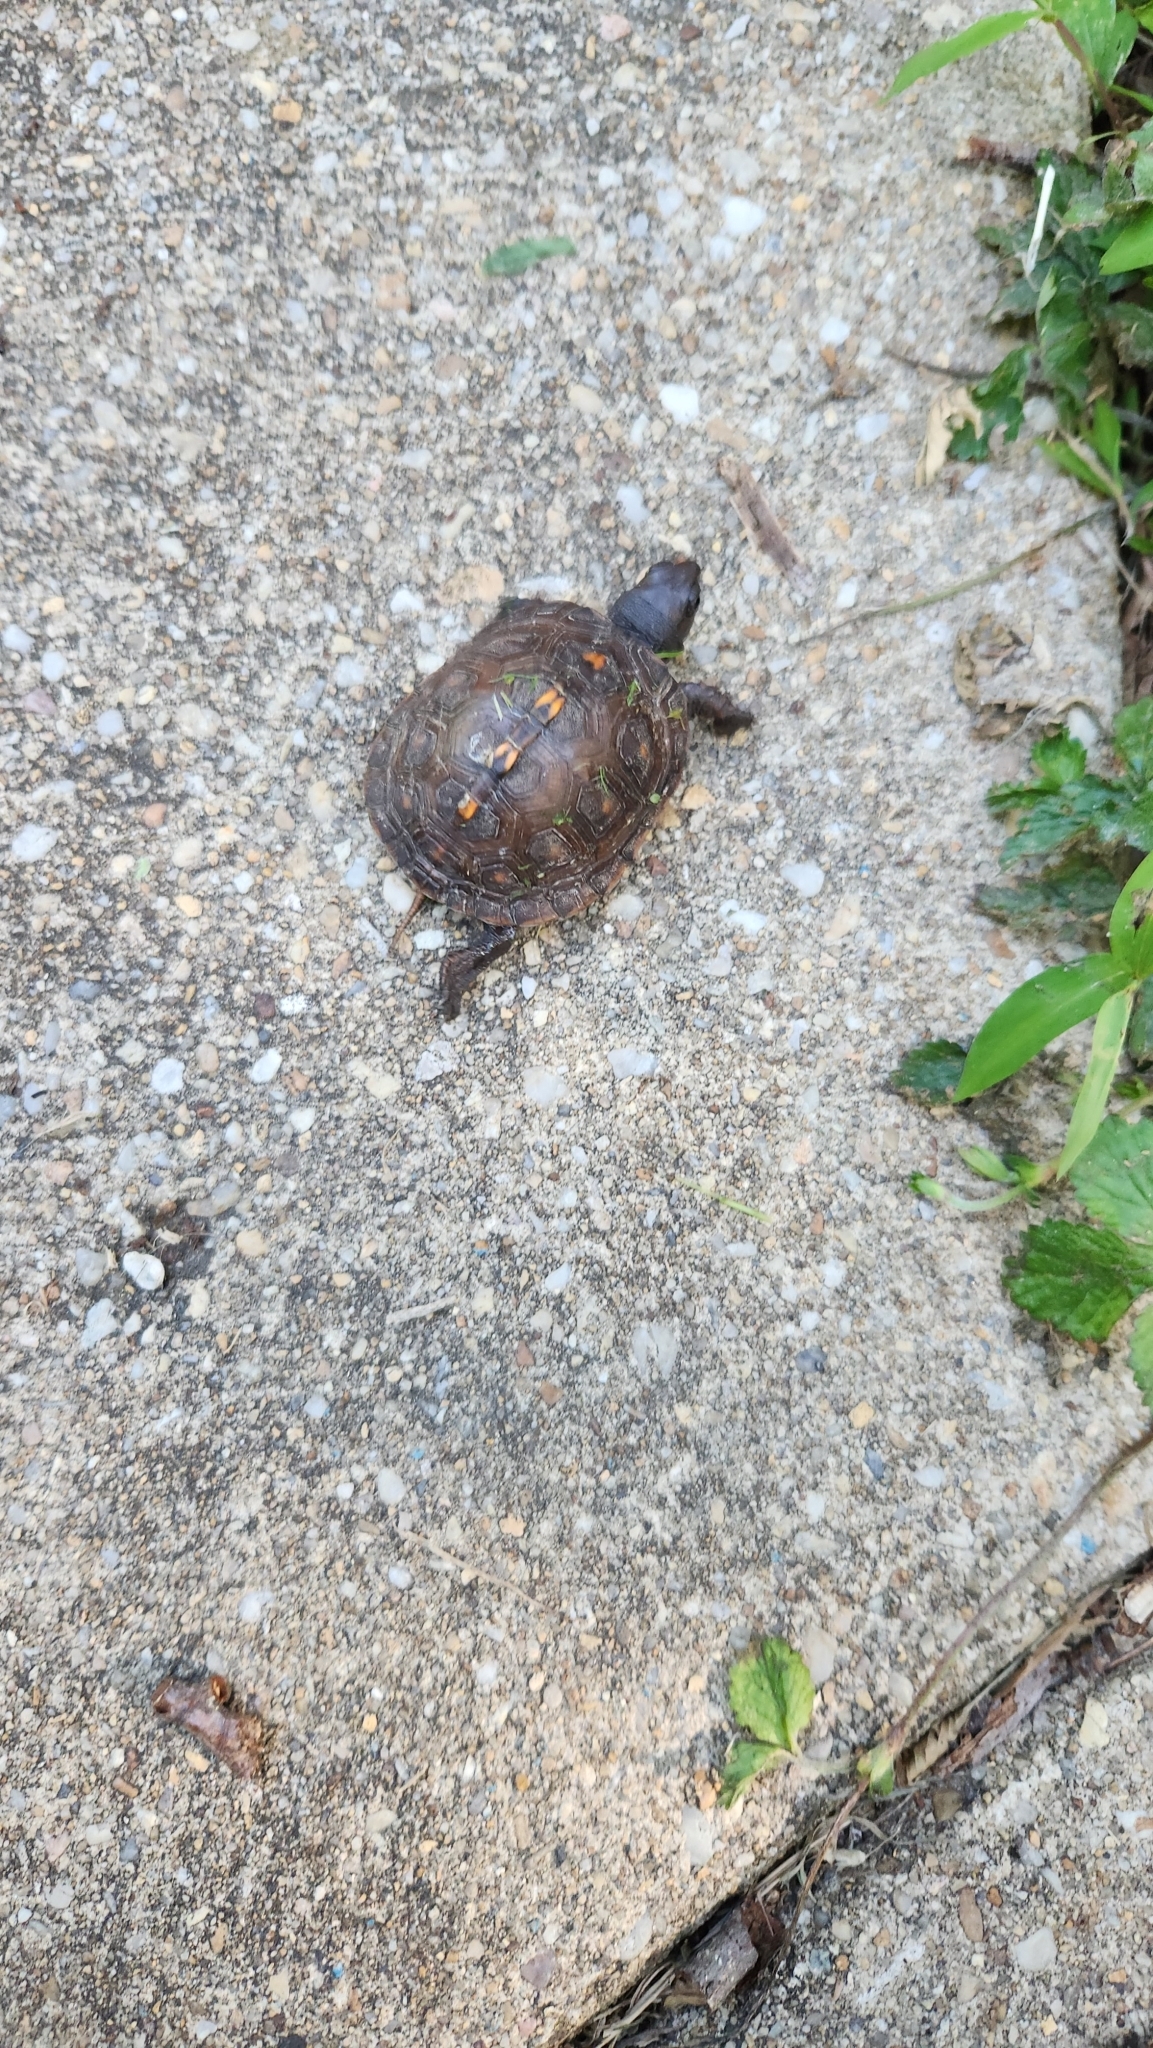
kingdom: Animalia
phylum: Chordata
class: Testudines
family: Emydidae
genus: Terrapene
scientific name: Terrapene carolina
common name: Common box turtle
